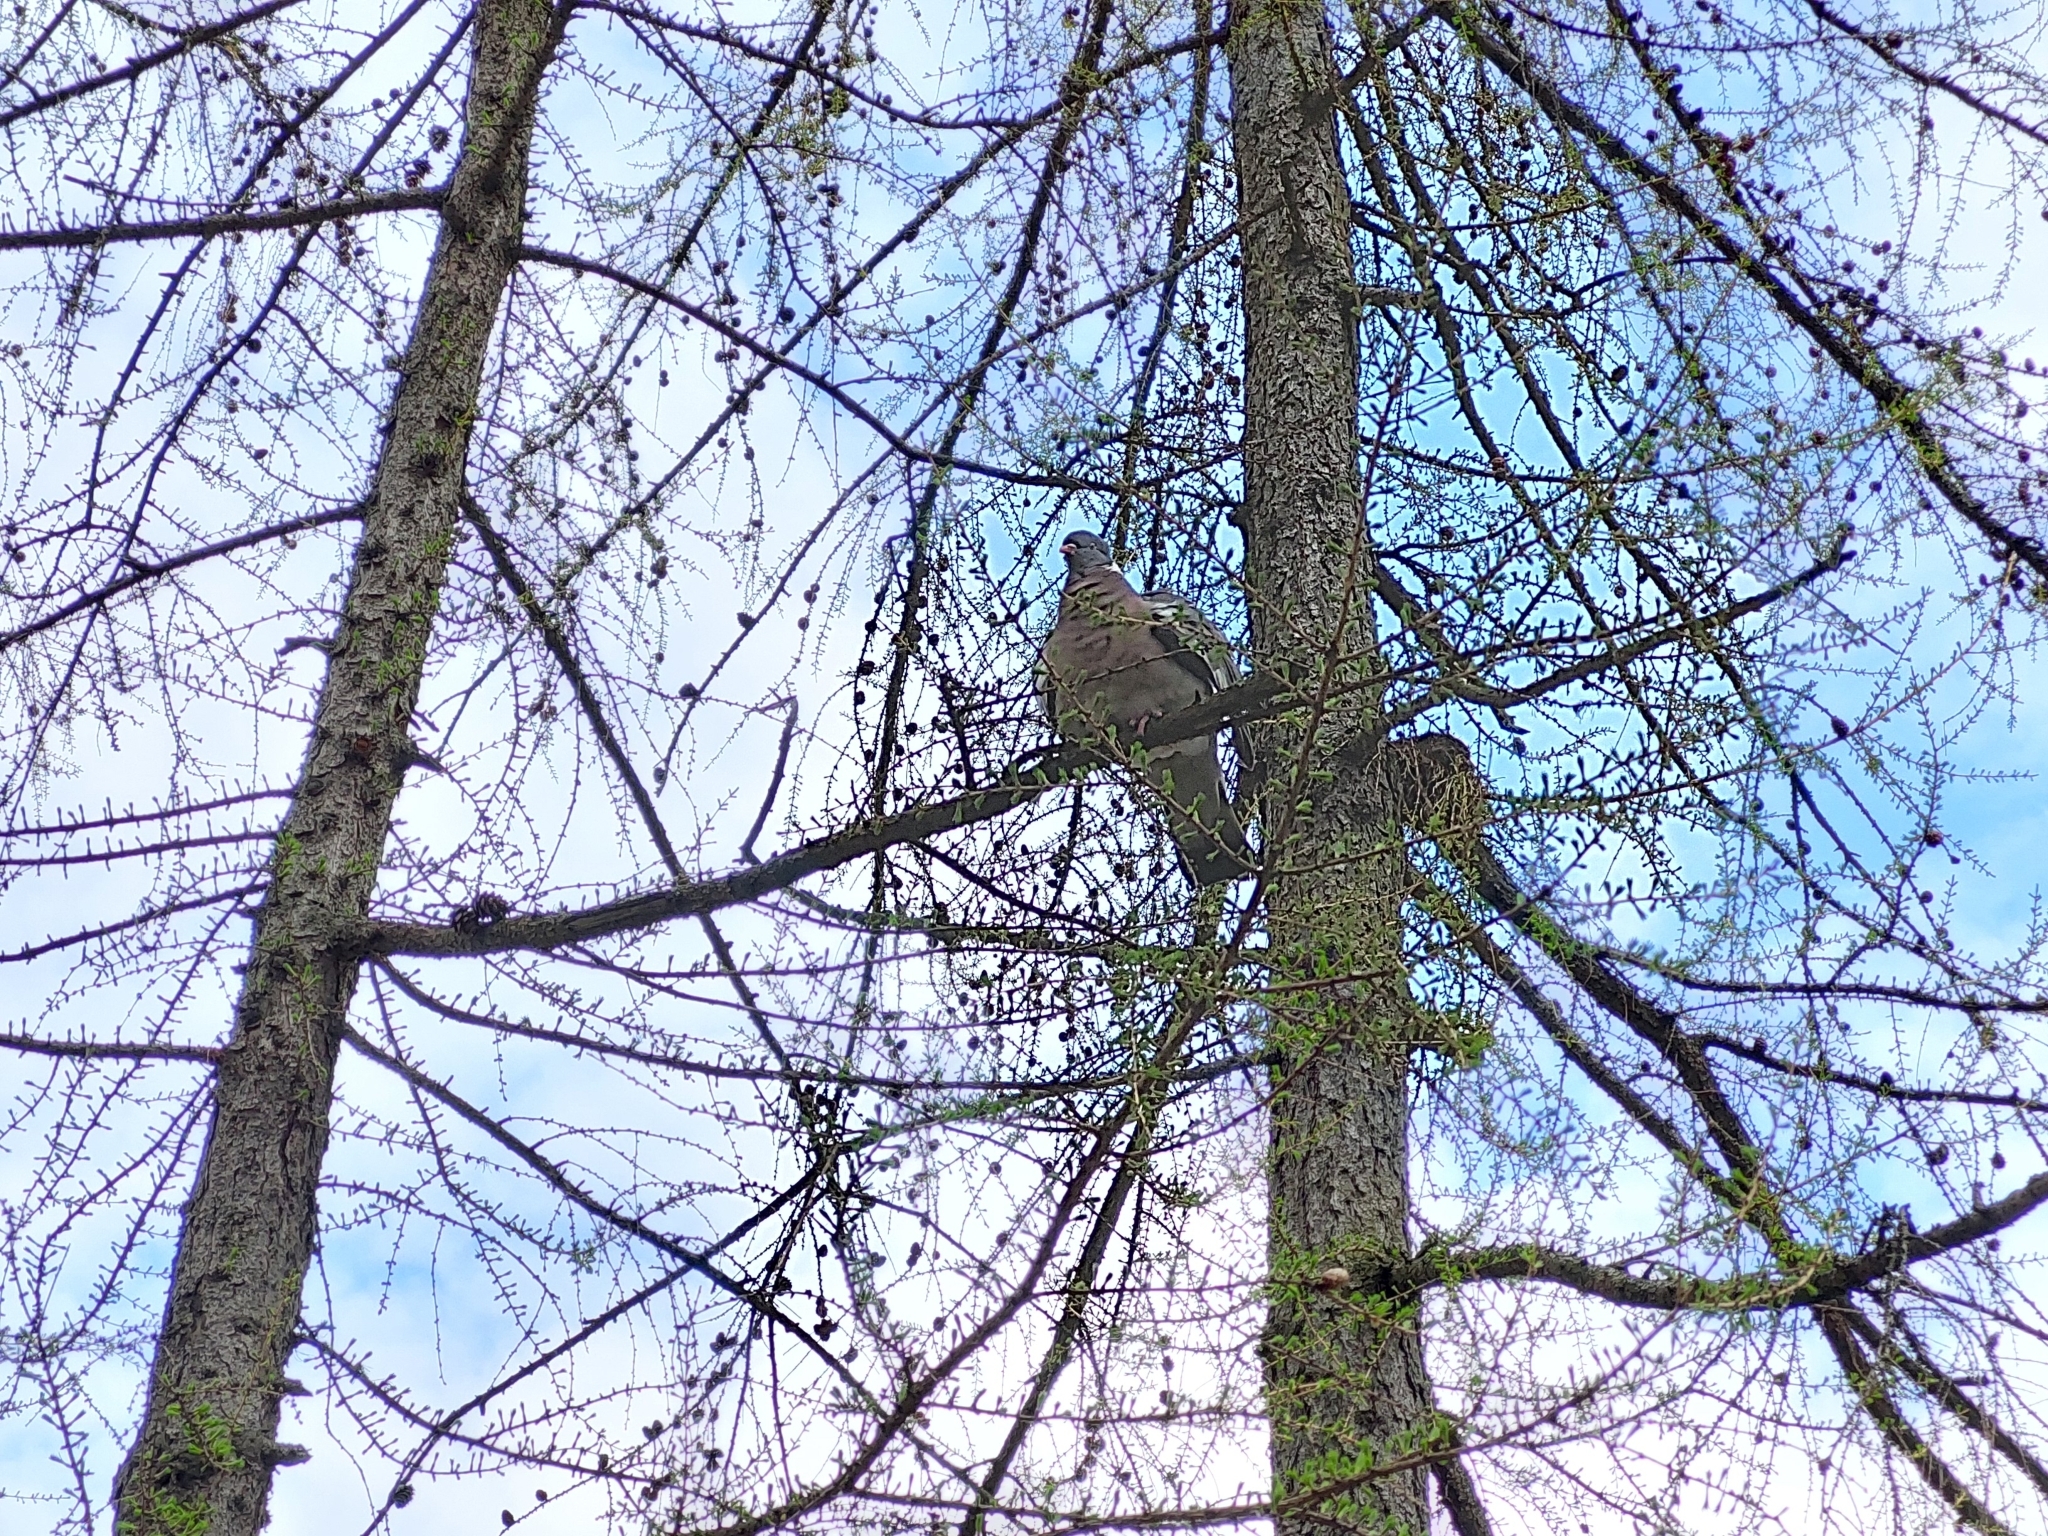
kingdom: Animalia
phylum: Chordata
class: Aves
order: Columbiformes
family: Columbidae
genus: Columba
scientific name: Columba palumbus
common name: Common wood pigeon
